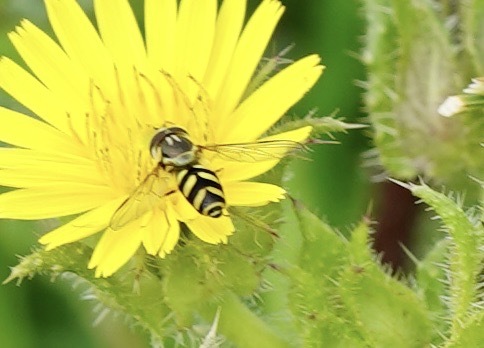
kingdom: Animalia
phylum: Arthropoda
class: Insecta
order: Diptera
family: Syrphidae
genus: Dasysyrphus
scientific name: Dasysyrphus albostriatus
